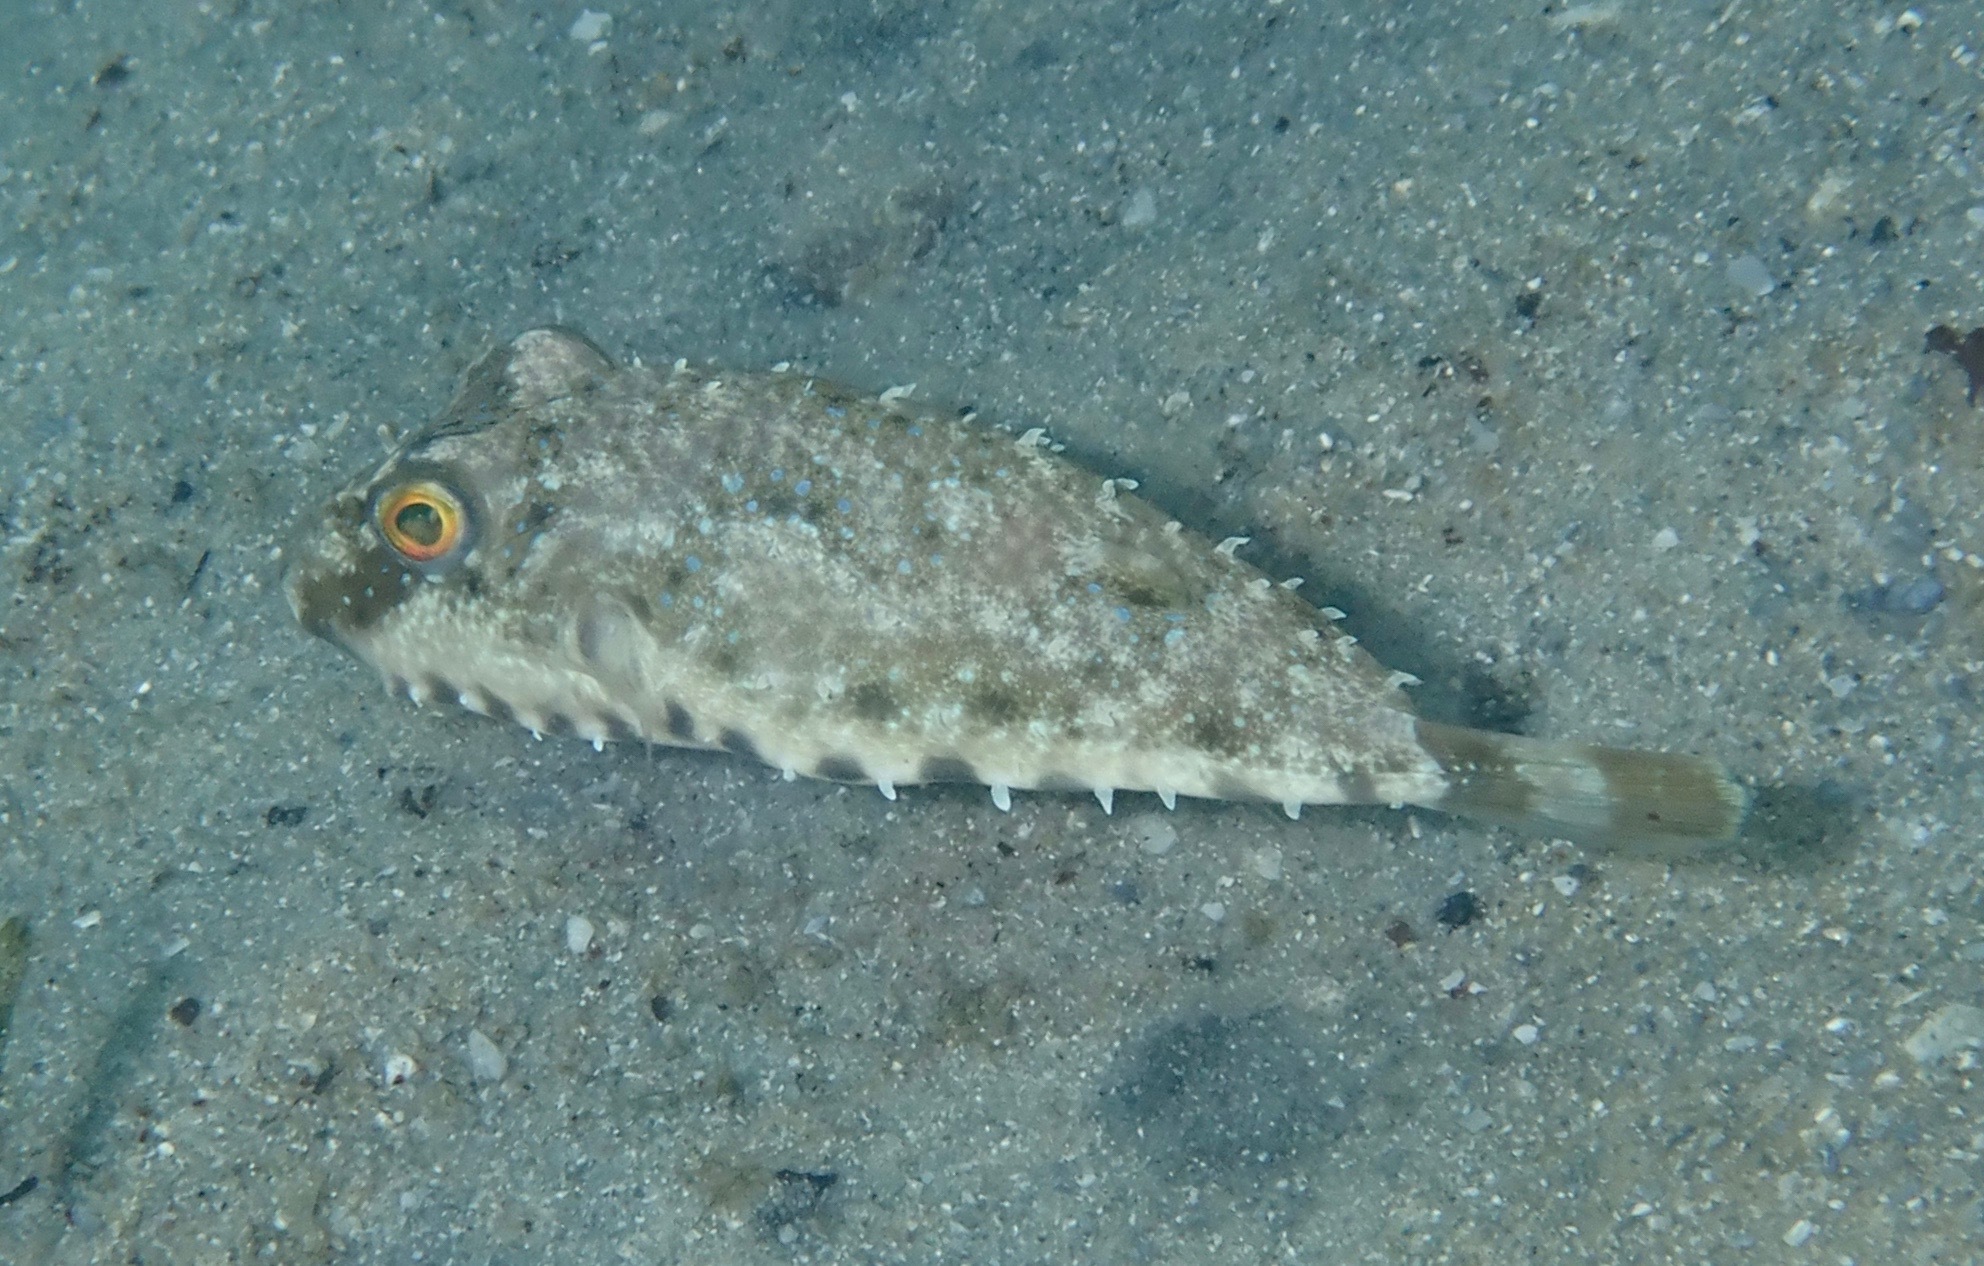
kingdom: Animalia
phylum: Chordata
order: Tetraodontiformes
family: Tetraodontidae
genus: Sphoeroides
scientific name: Sphoeroides spengleri
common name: Bandtail puffer
